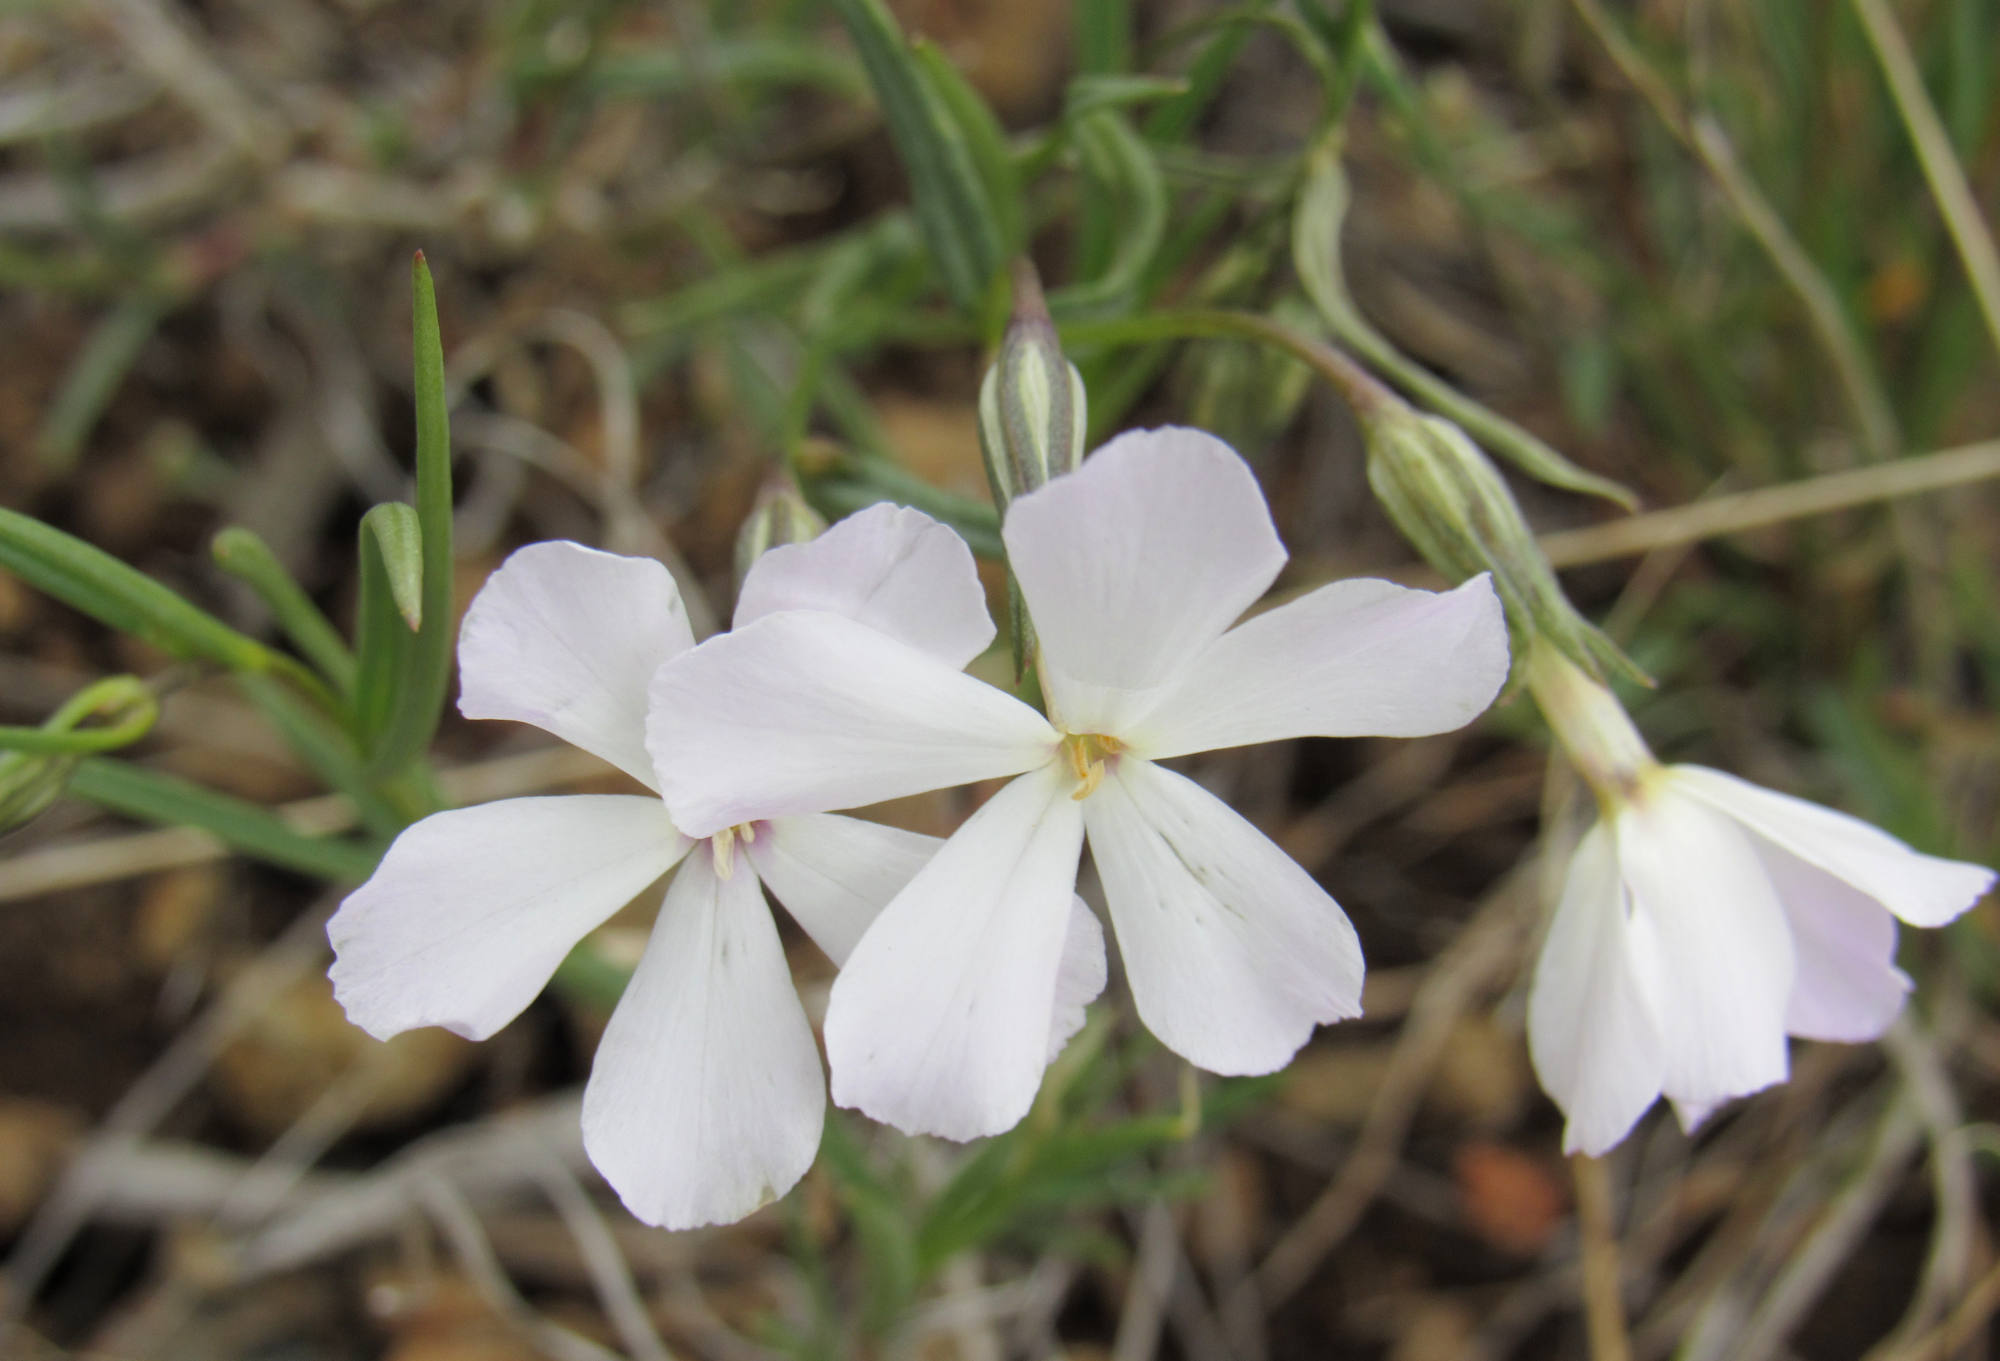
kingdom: Plantae
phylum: Tracheophyta
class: Magnoliopsida
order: Ericales
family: Polemoniaceae
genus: Phlox
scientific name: Phlox longifolia
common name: Longleaf phlox
